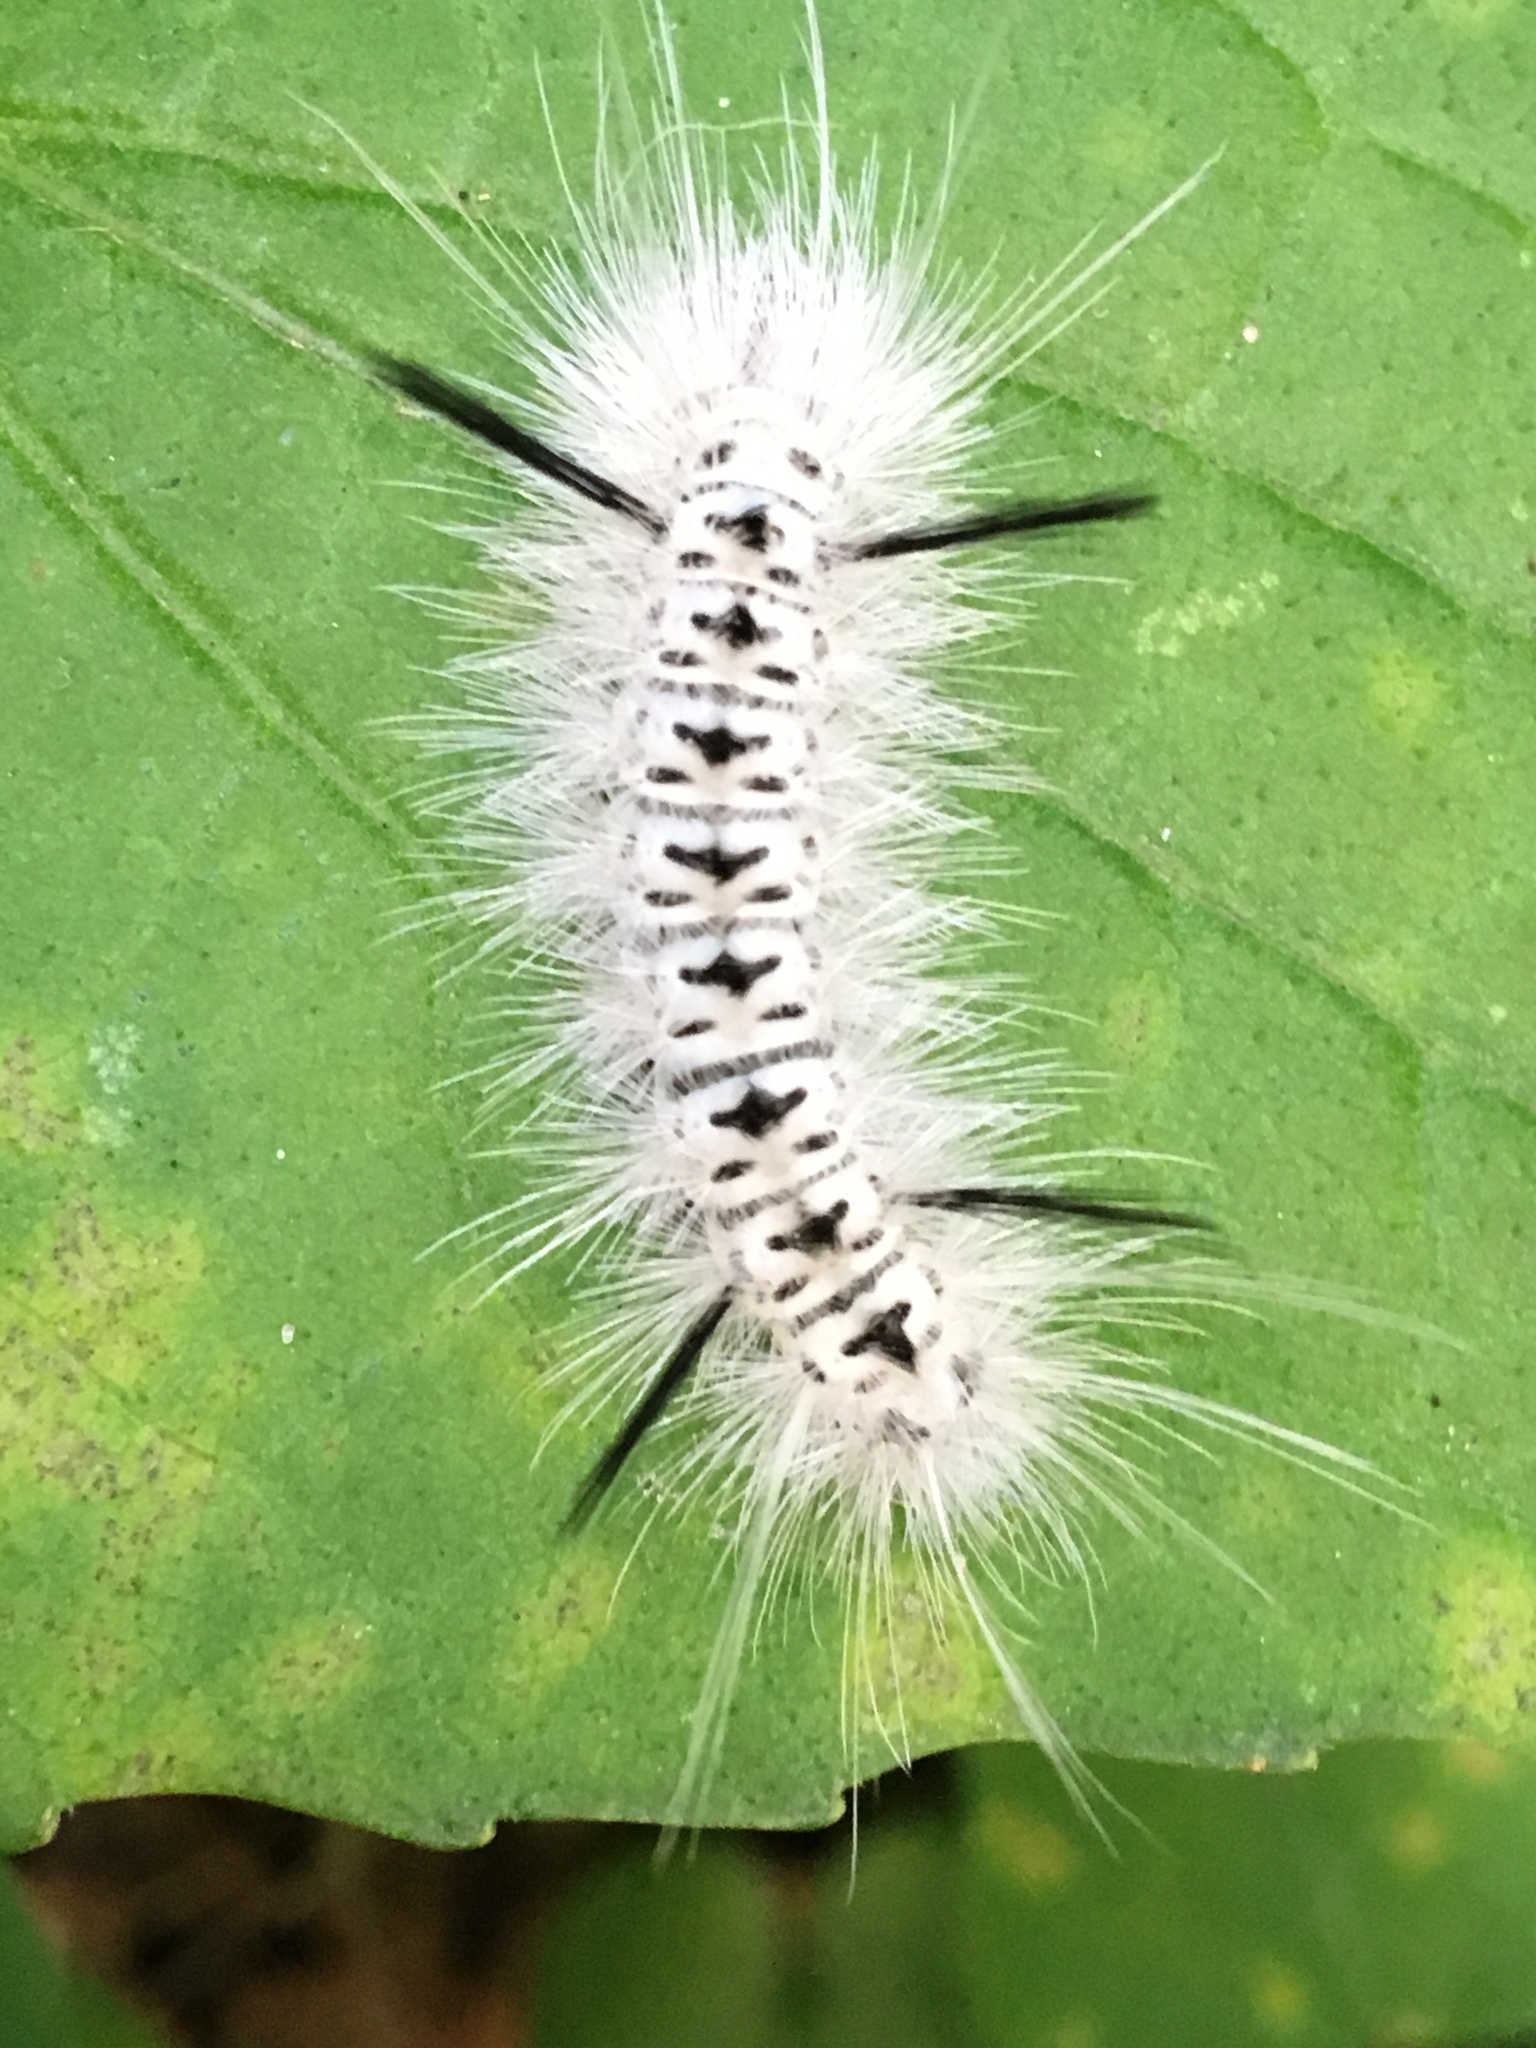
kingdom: Animalia
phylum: Arthropoda
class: Insecta
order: Lepidoptera
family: Erebidae
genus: Lophocampa
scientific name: Lophocampa caryae
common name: Hickory tussock moth
